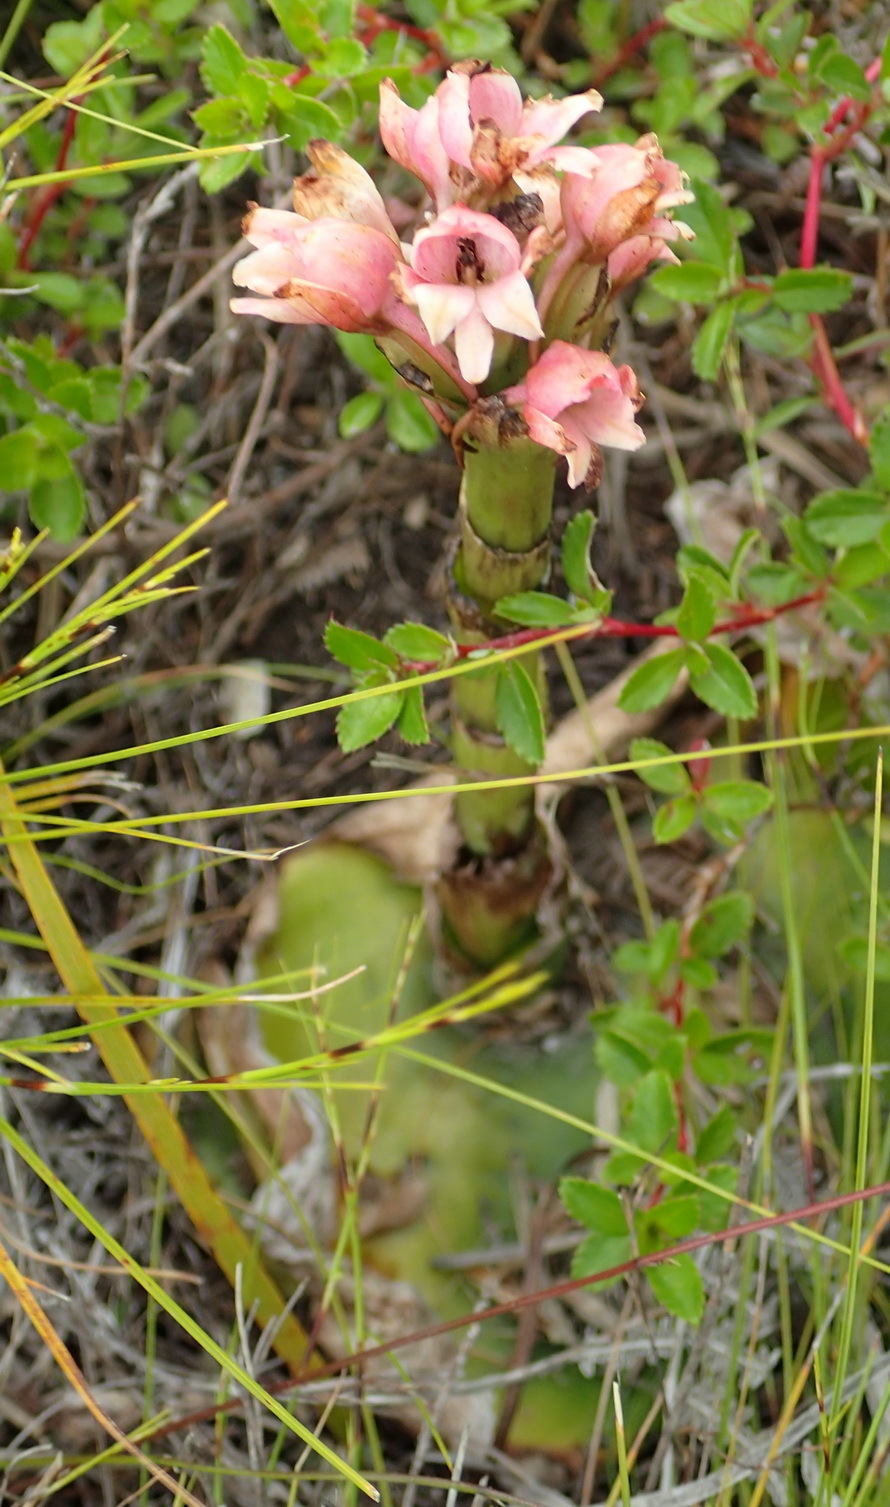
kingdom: Plantae
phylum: Tracheophyta
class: Liliopsida
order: Asparagales
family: Orchidaceae
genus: Satyrium
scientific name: Satyrium acuminatum
